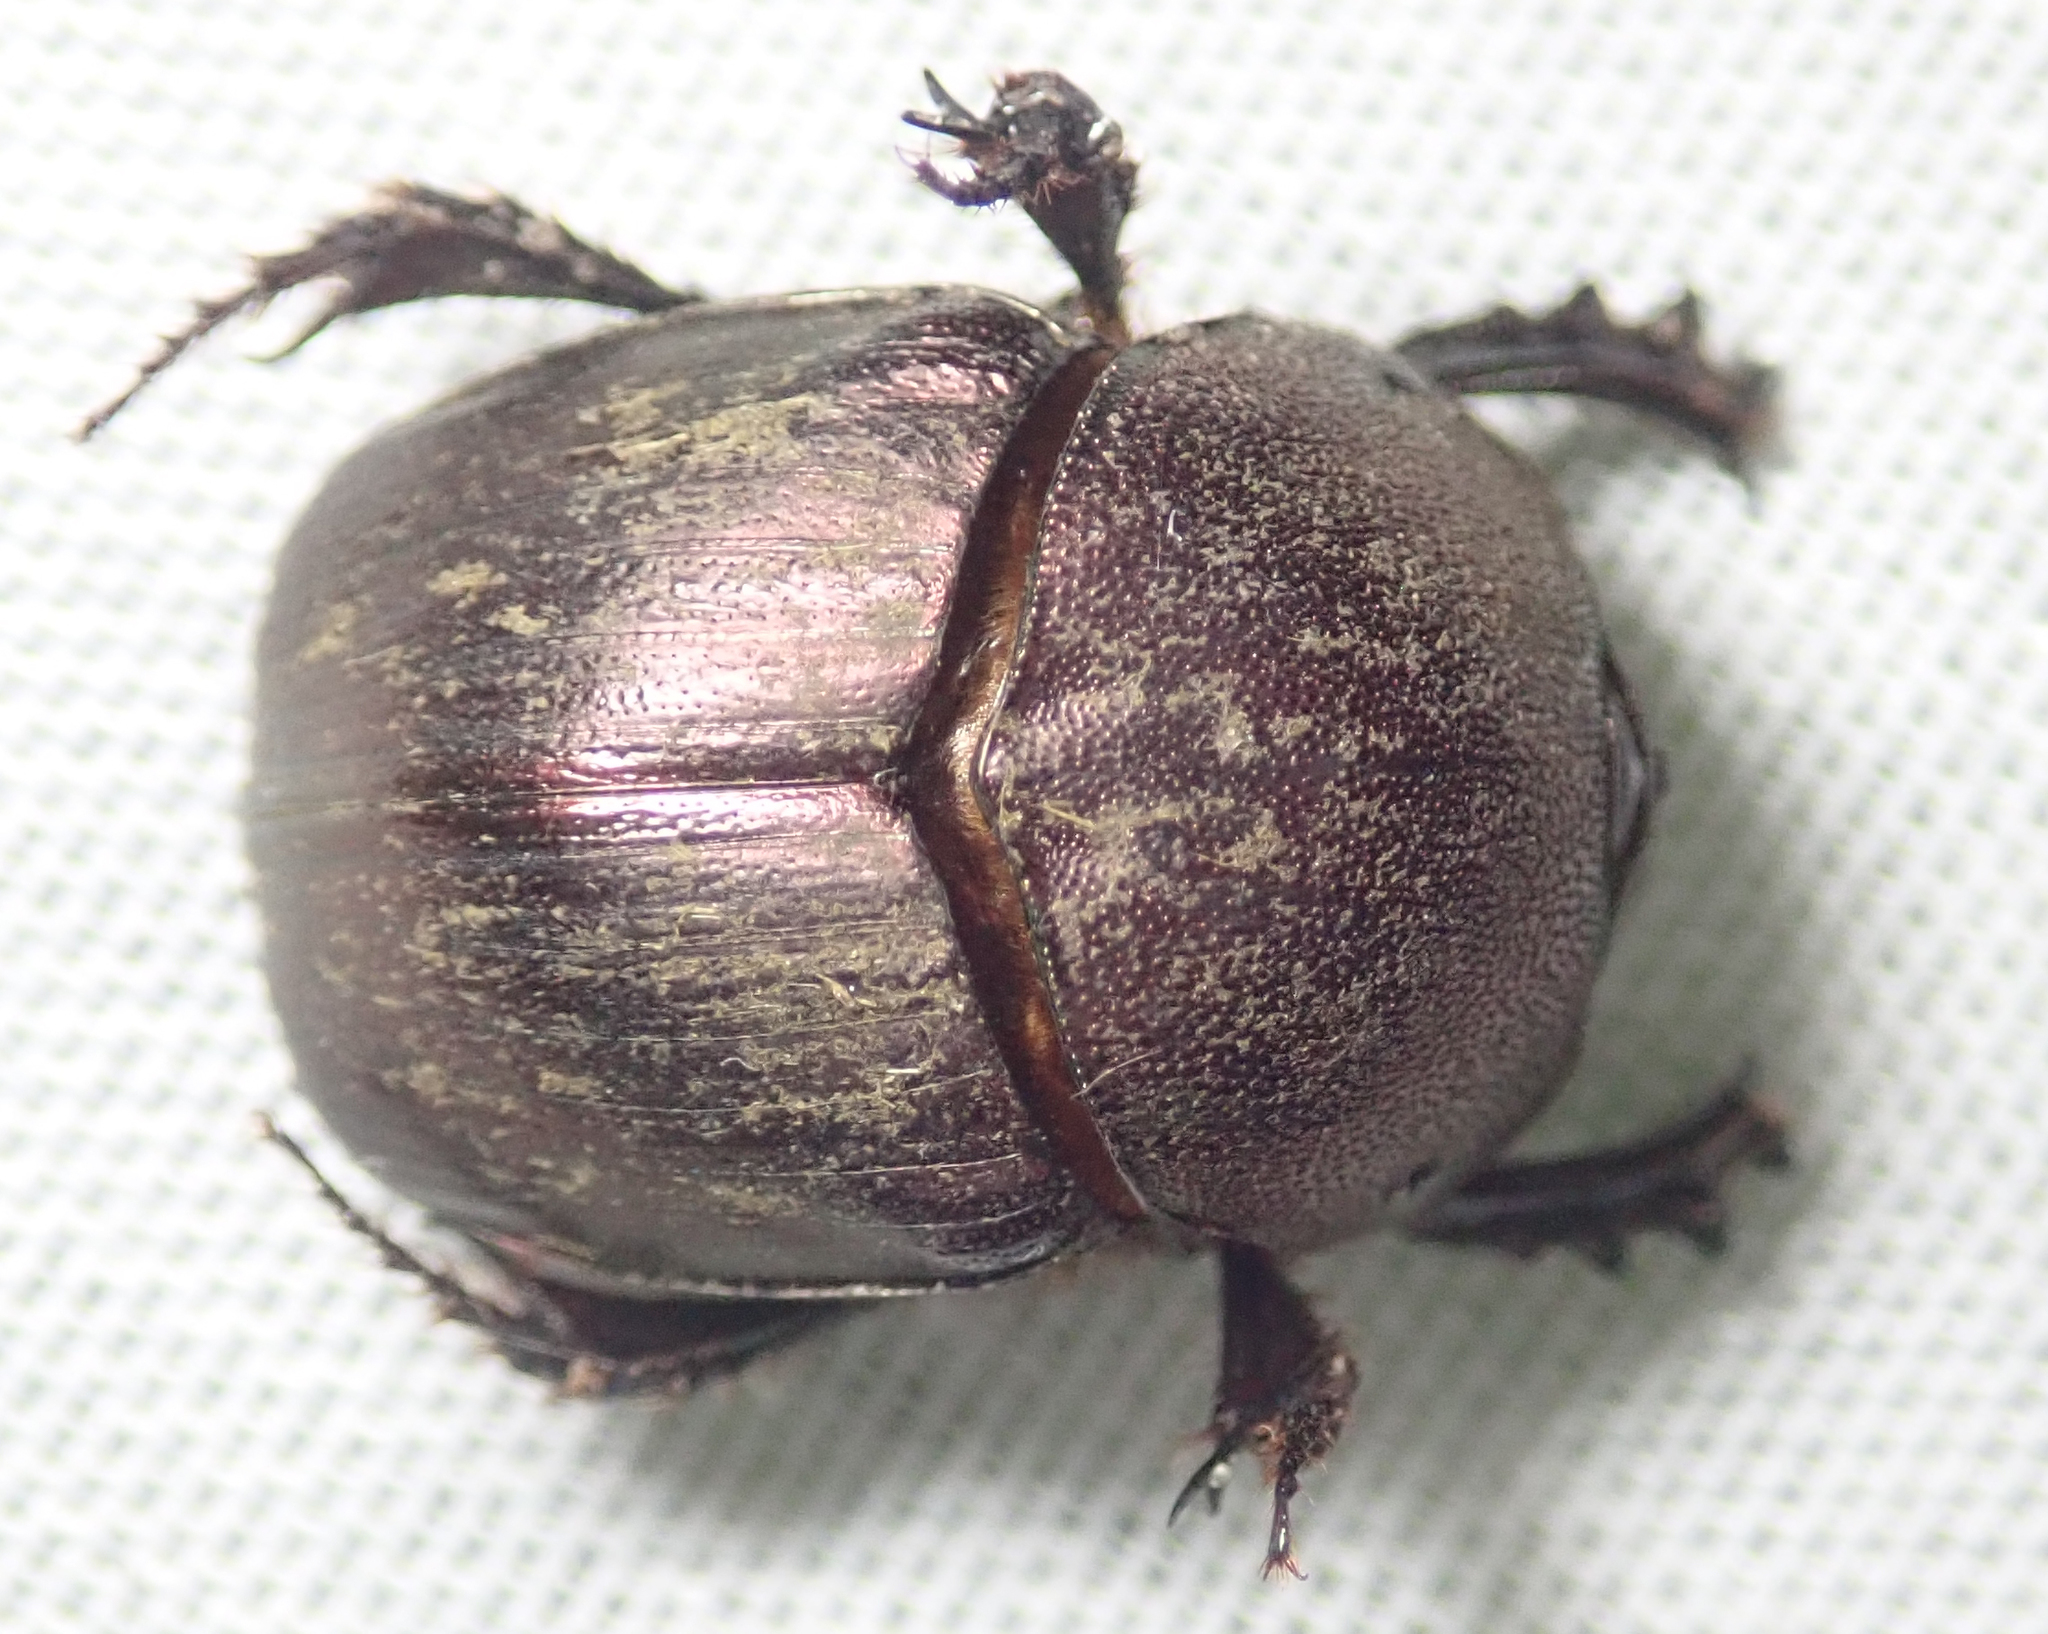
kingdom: Animalia
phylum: Arthropoda
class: Insecta
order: Coleoptera
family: Scarabaeidae
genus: Onitis
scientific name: Onitis westermanni
